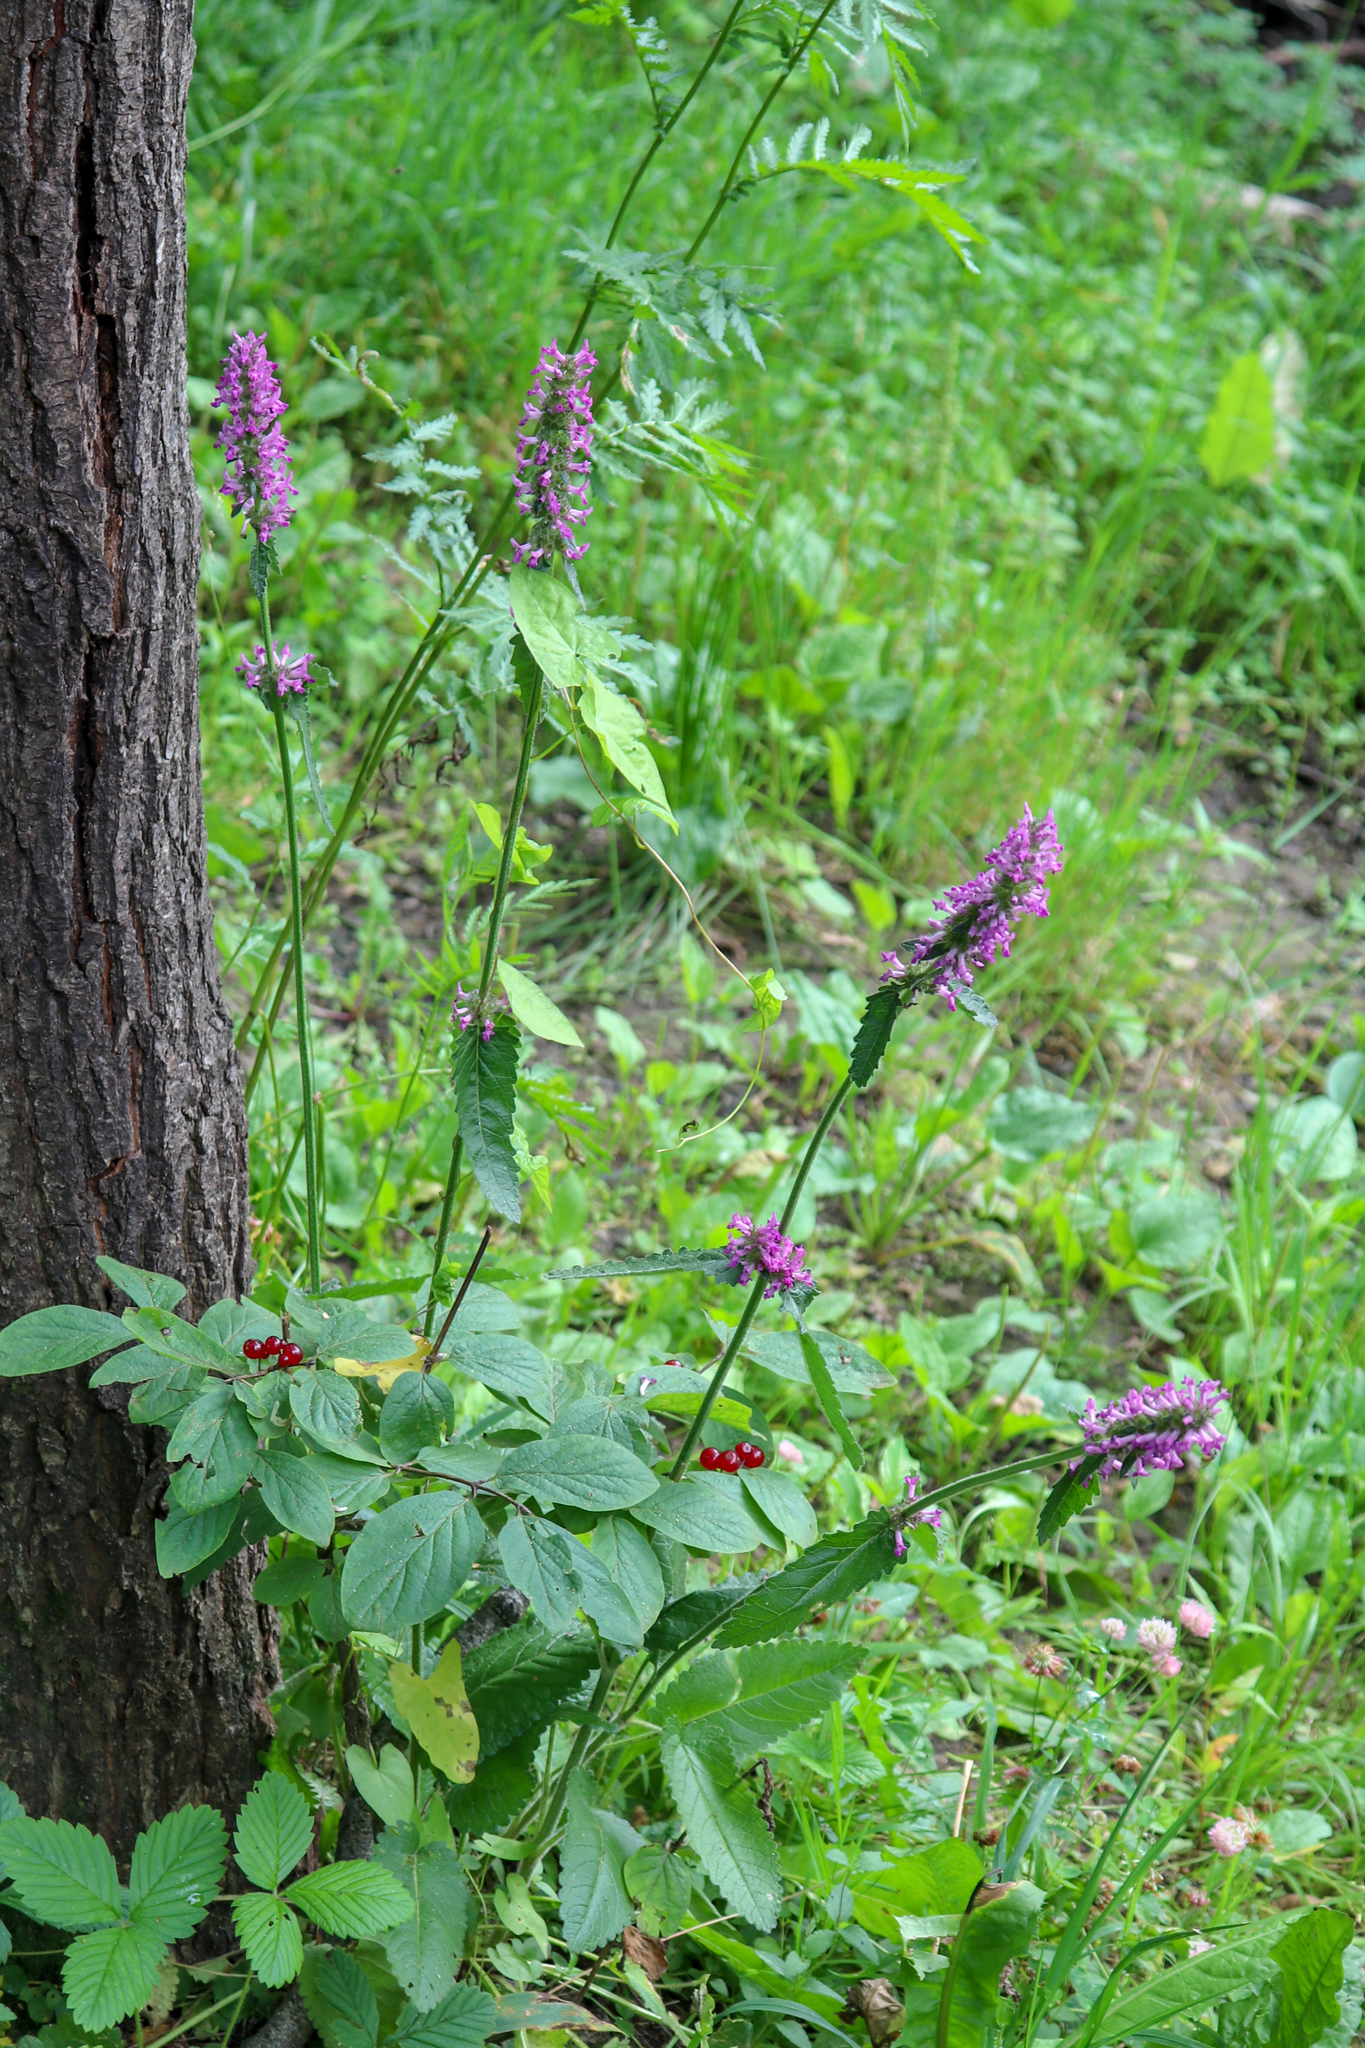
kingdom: Plantae
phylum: Tracheophyta
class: Magnoliopsida
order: Lamiales
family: Lamiaceae
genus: Betonica
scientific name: Betonica officinalis
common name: Bishop's-wort
